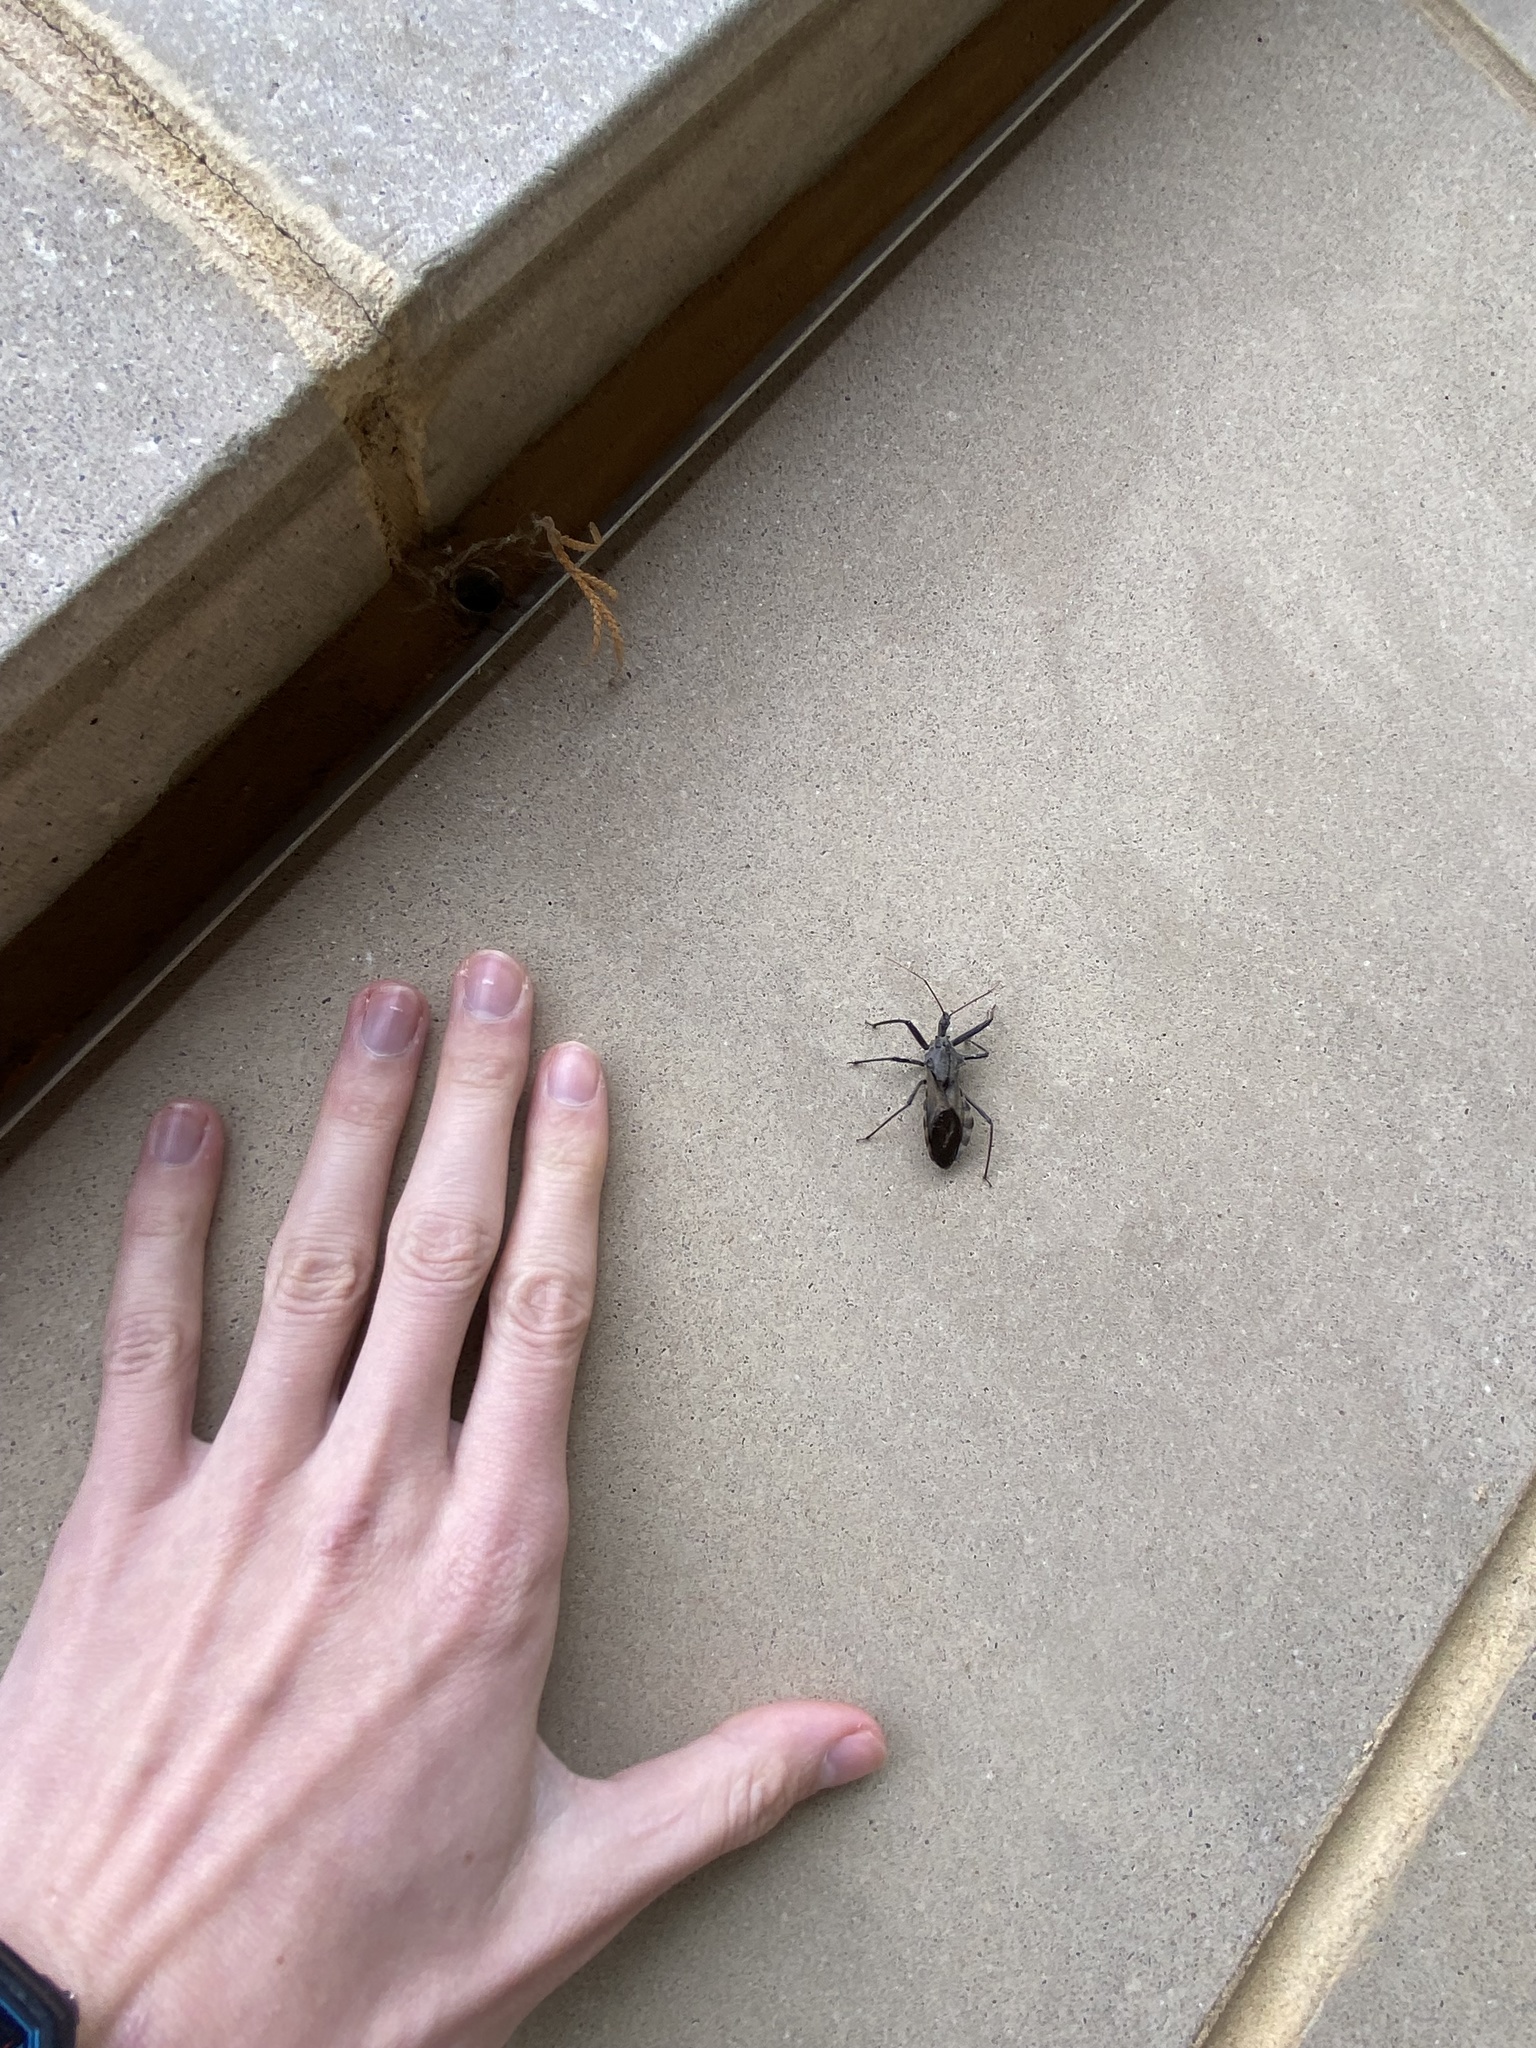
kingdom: Animalia
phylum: Arthropoda
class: Insecta
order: Hemiptera
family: Reduviidae
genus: Arilus
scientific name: Arilus cristatus
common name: North american wheel bug
